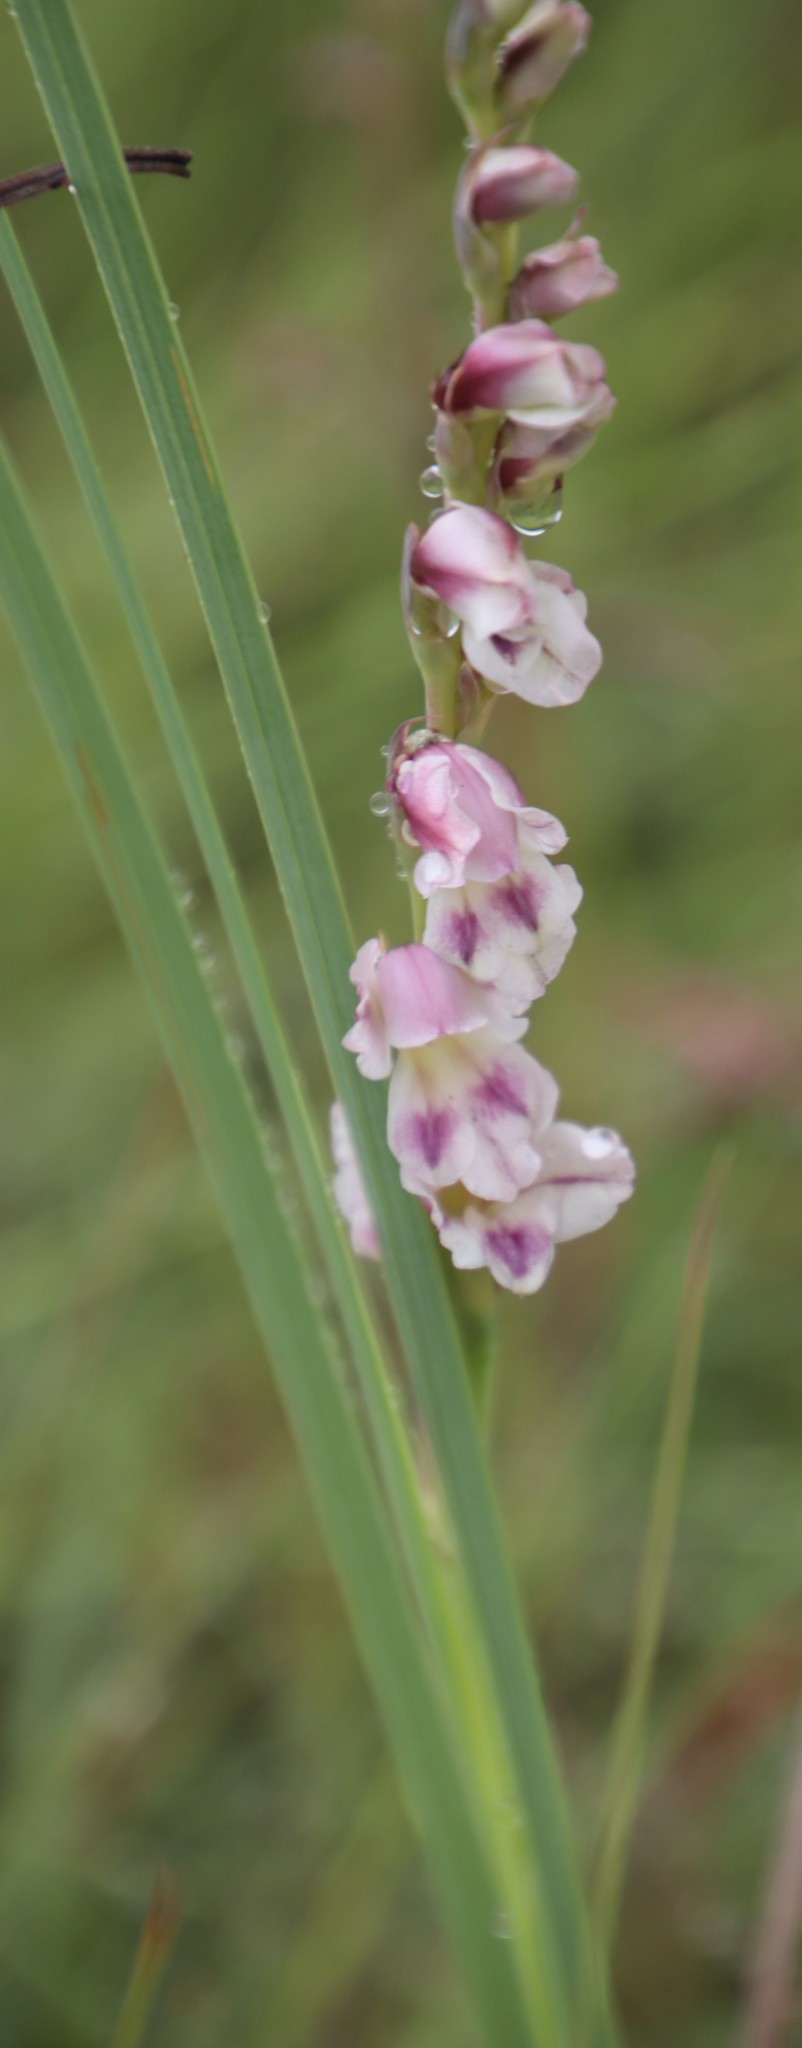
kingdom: Plantae
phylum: Tracheophyta
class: Liliopsida
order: Asparagales
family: Iridaceae
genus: Gladiolus
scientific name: Gladiolus crassifolius
